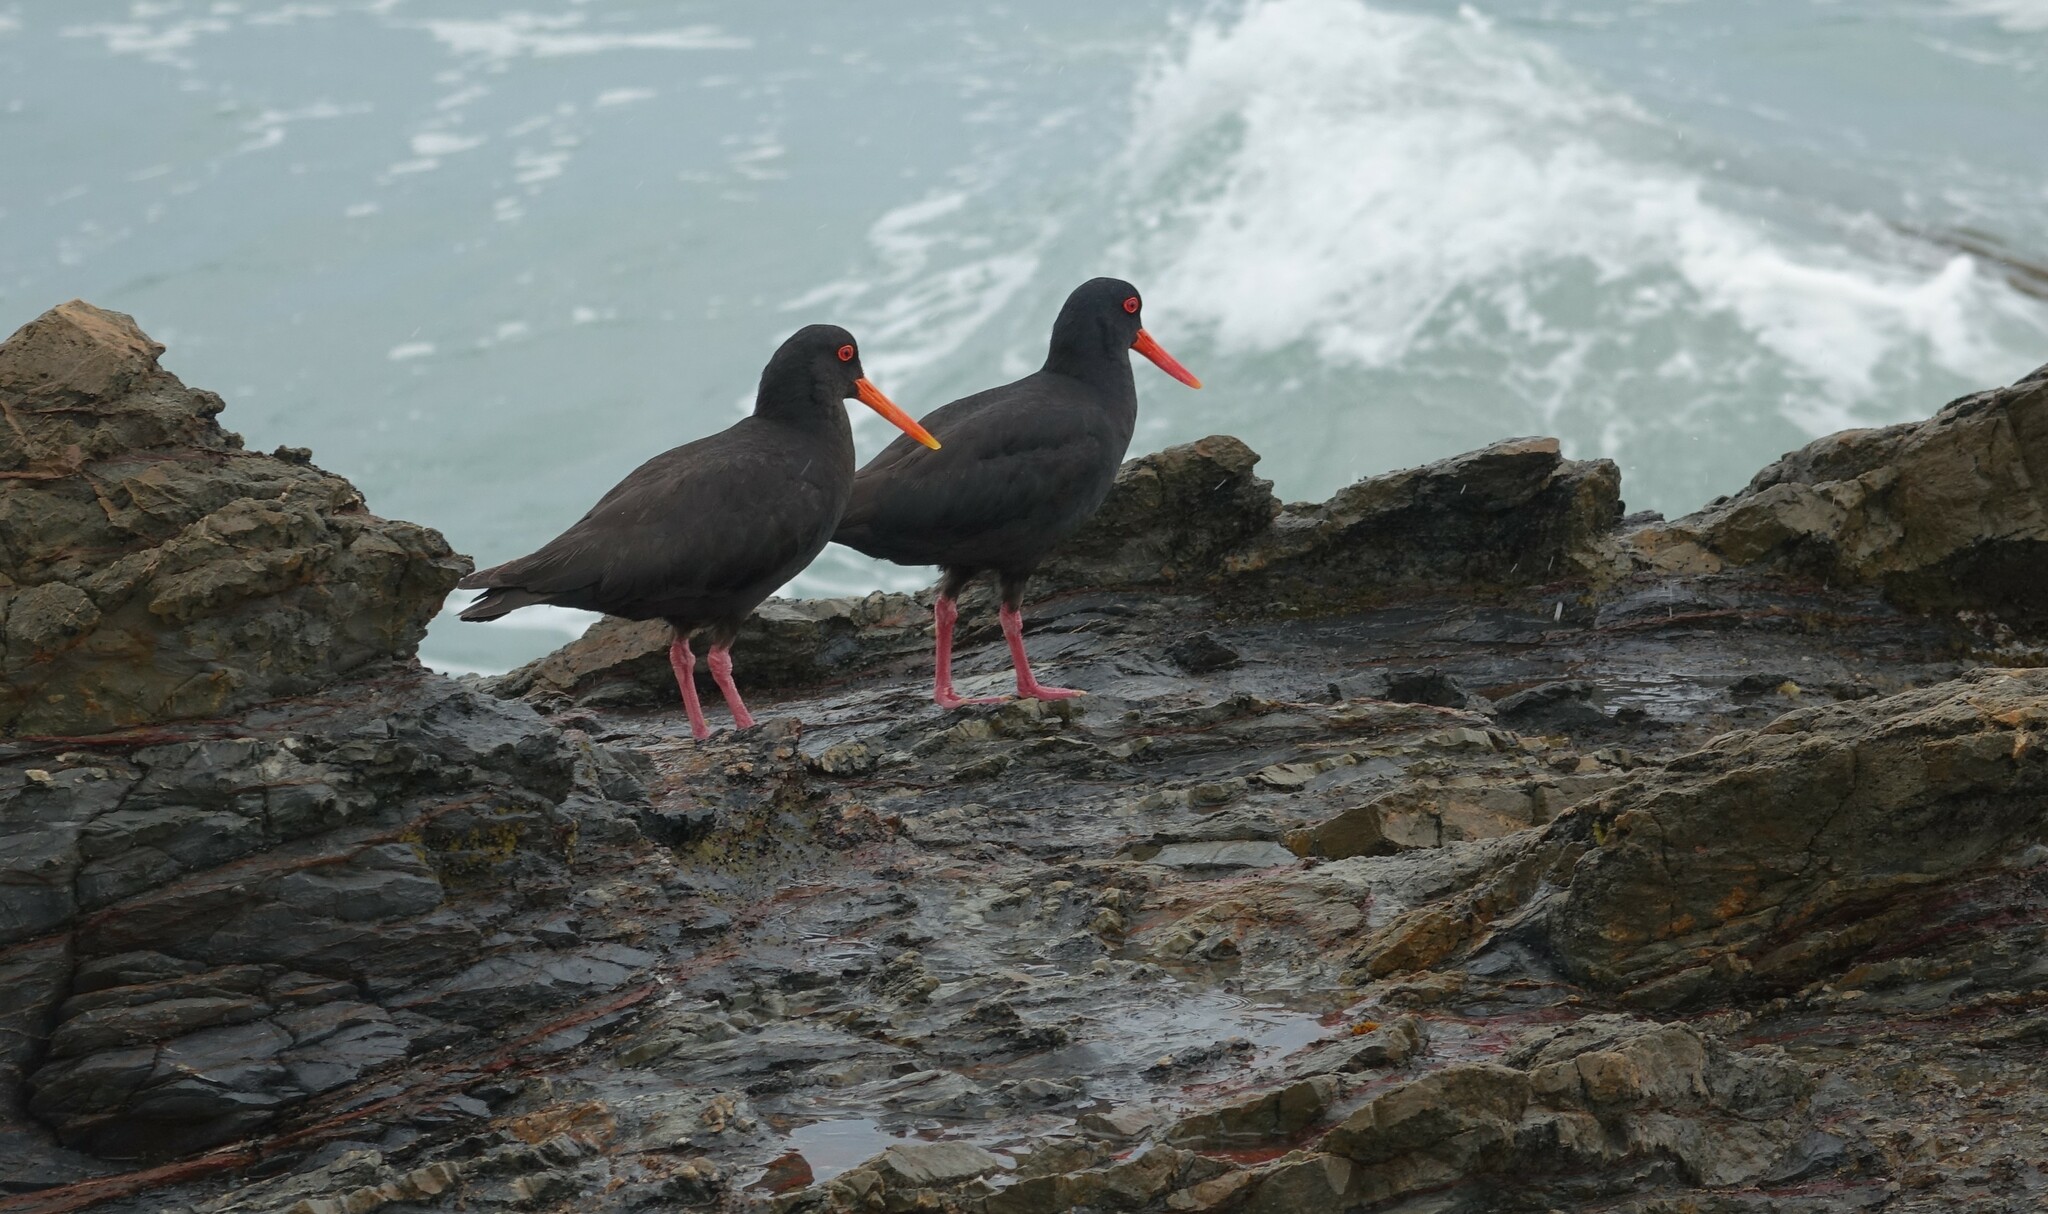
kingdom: Animalia
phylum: Chordata
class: Aves
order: Charadriiformes
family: Haematopodidae
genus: Haematopus
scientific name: Haematopus unicolor
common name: Variable oystercatcher
